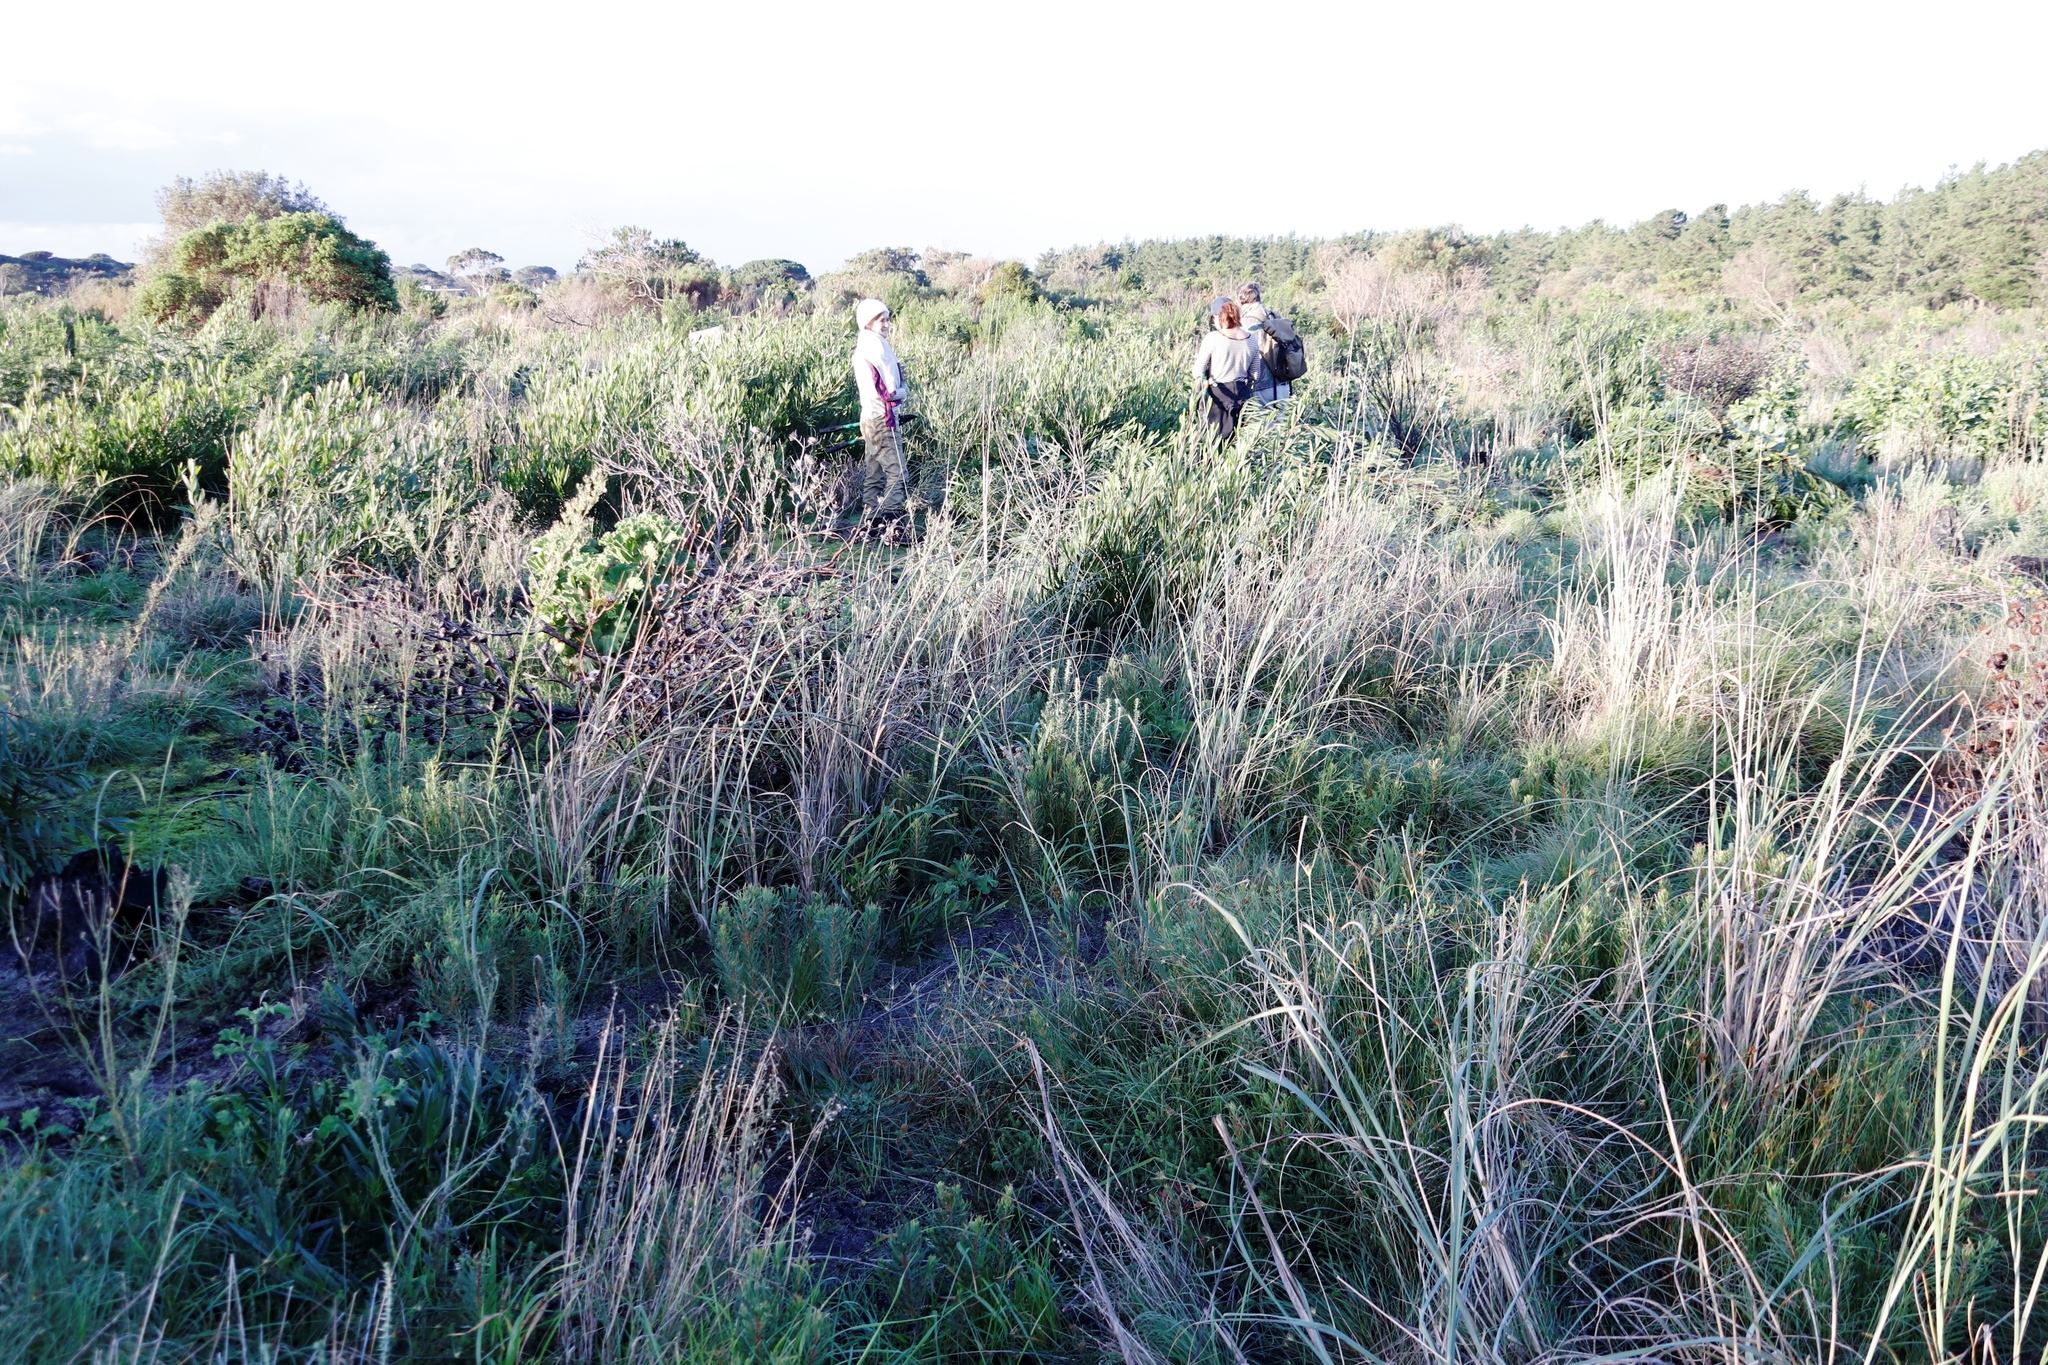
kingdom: Plantae
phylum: Tracheophyta
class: Magnoliopsida
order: Fabales
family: Fabaceae
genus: Acacia
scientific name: Acacia longifolia
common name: Sydney golden wattle
